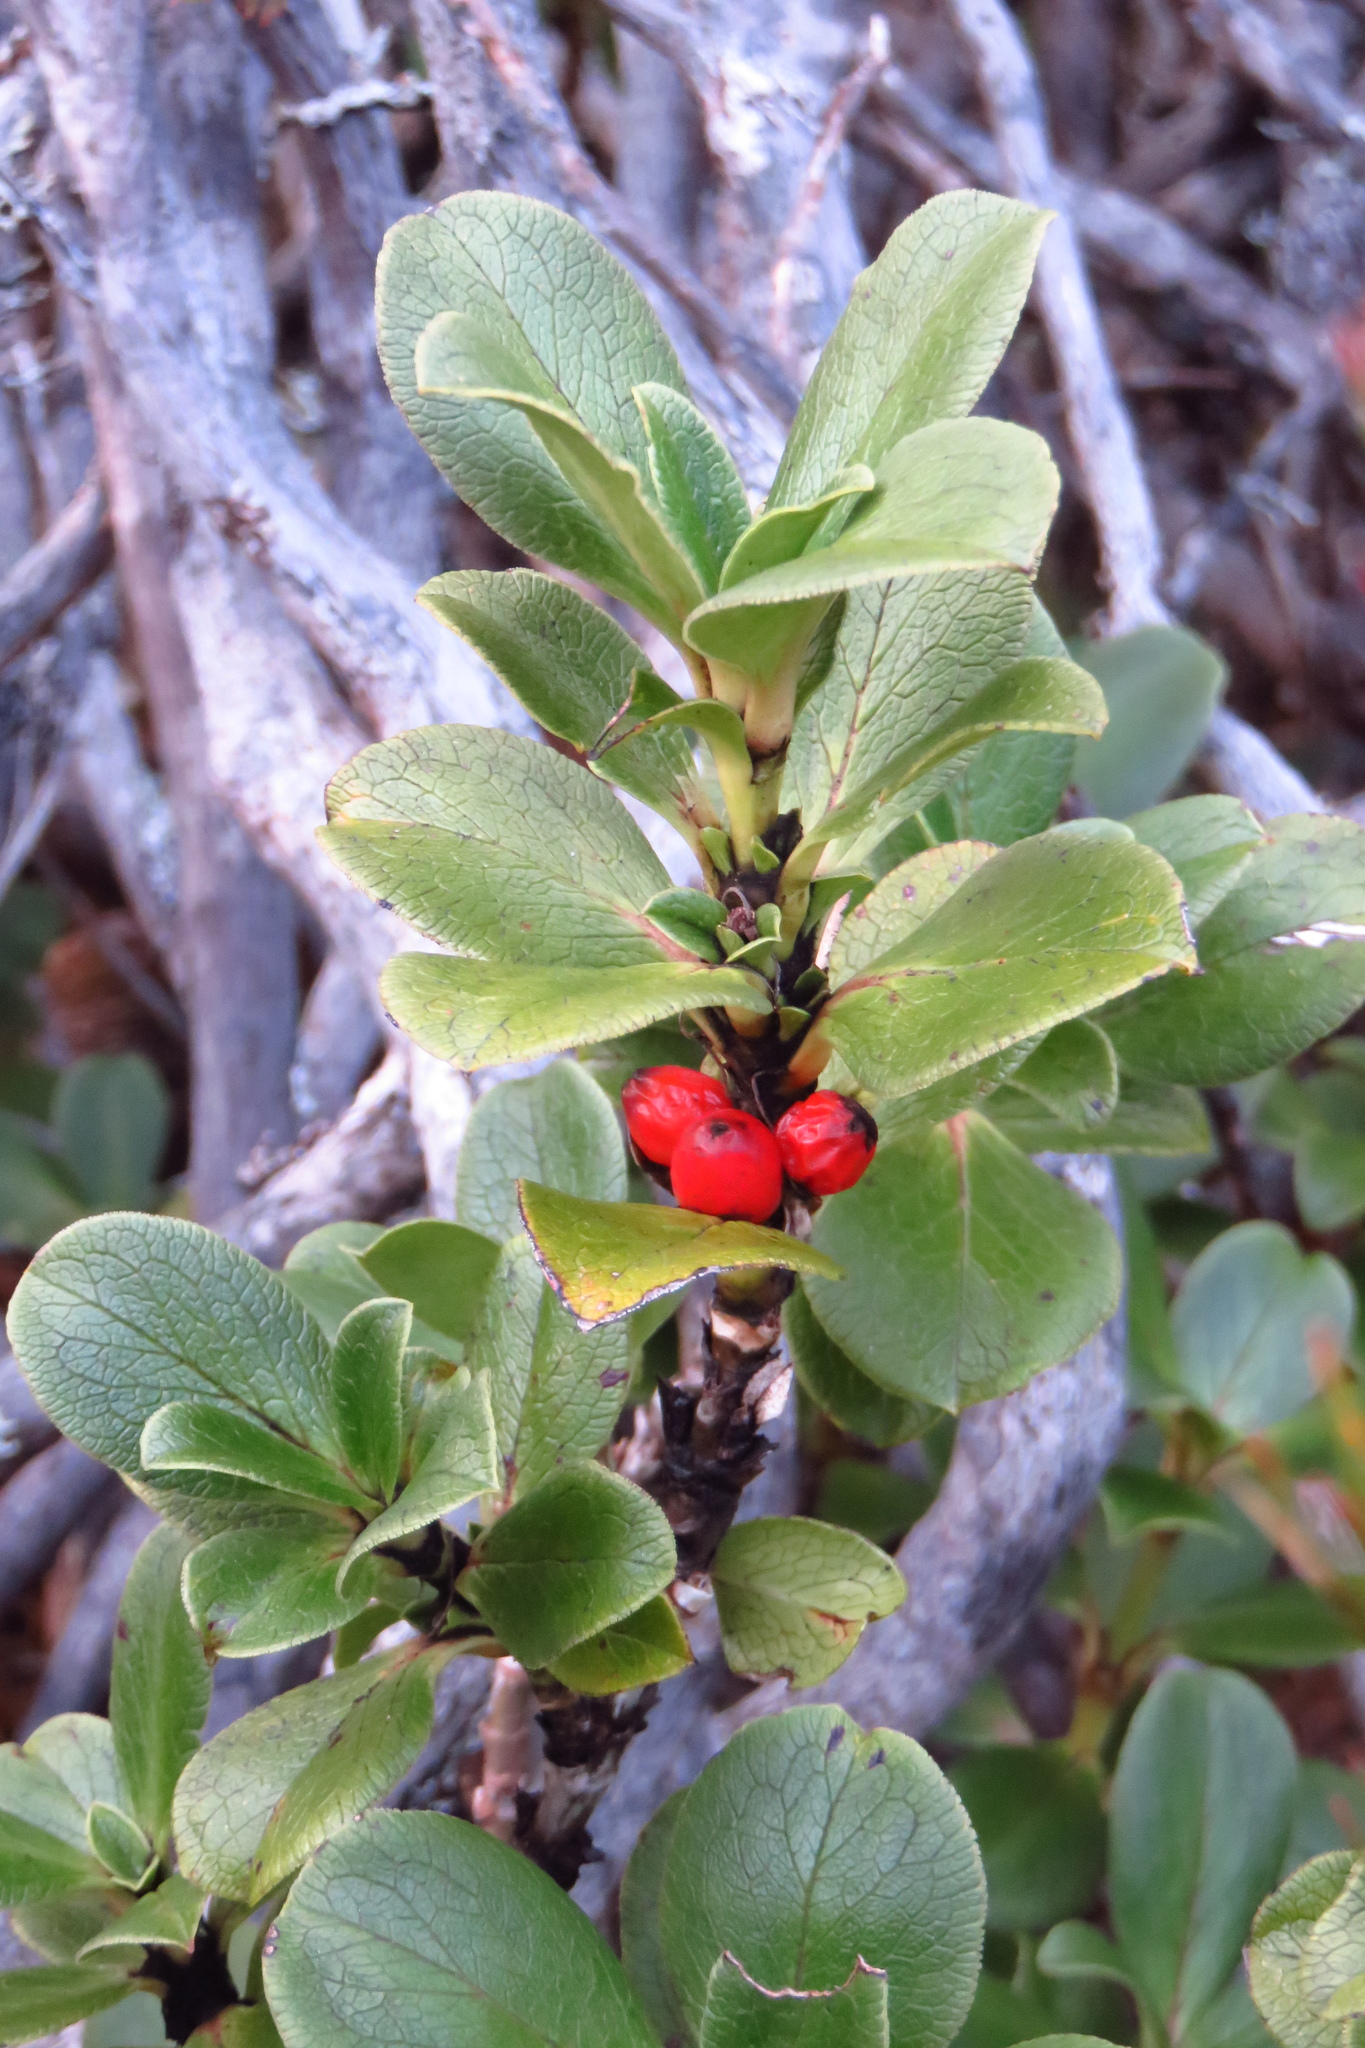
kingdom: Plantae
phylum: Tracheophyta
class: Magnoliopsida
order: Gentianales
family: Rubiaceae
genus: Coprosma
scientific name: Coprosma serrulata
